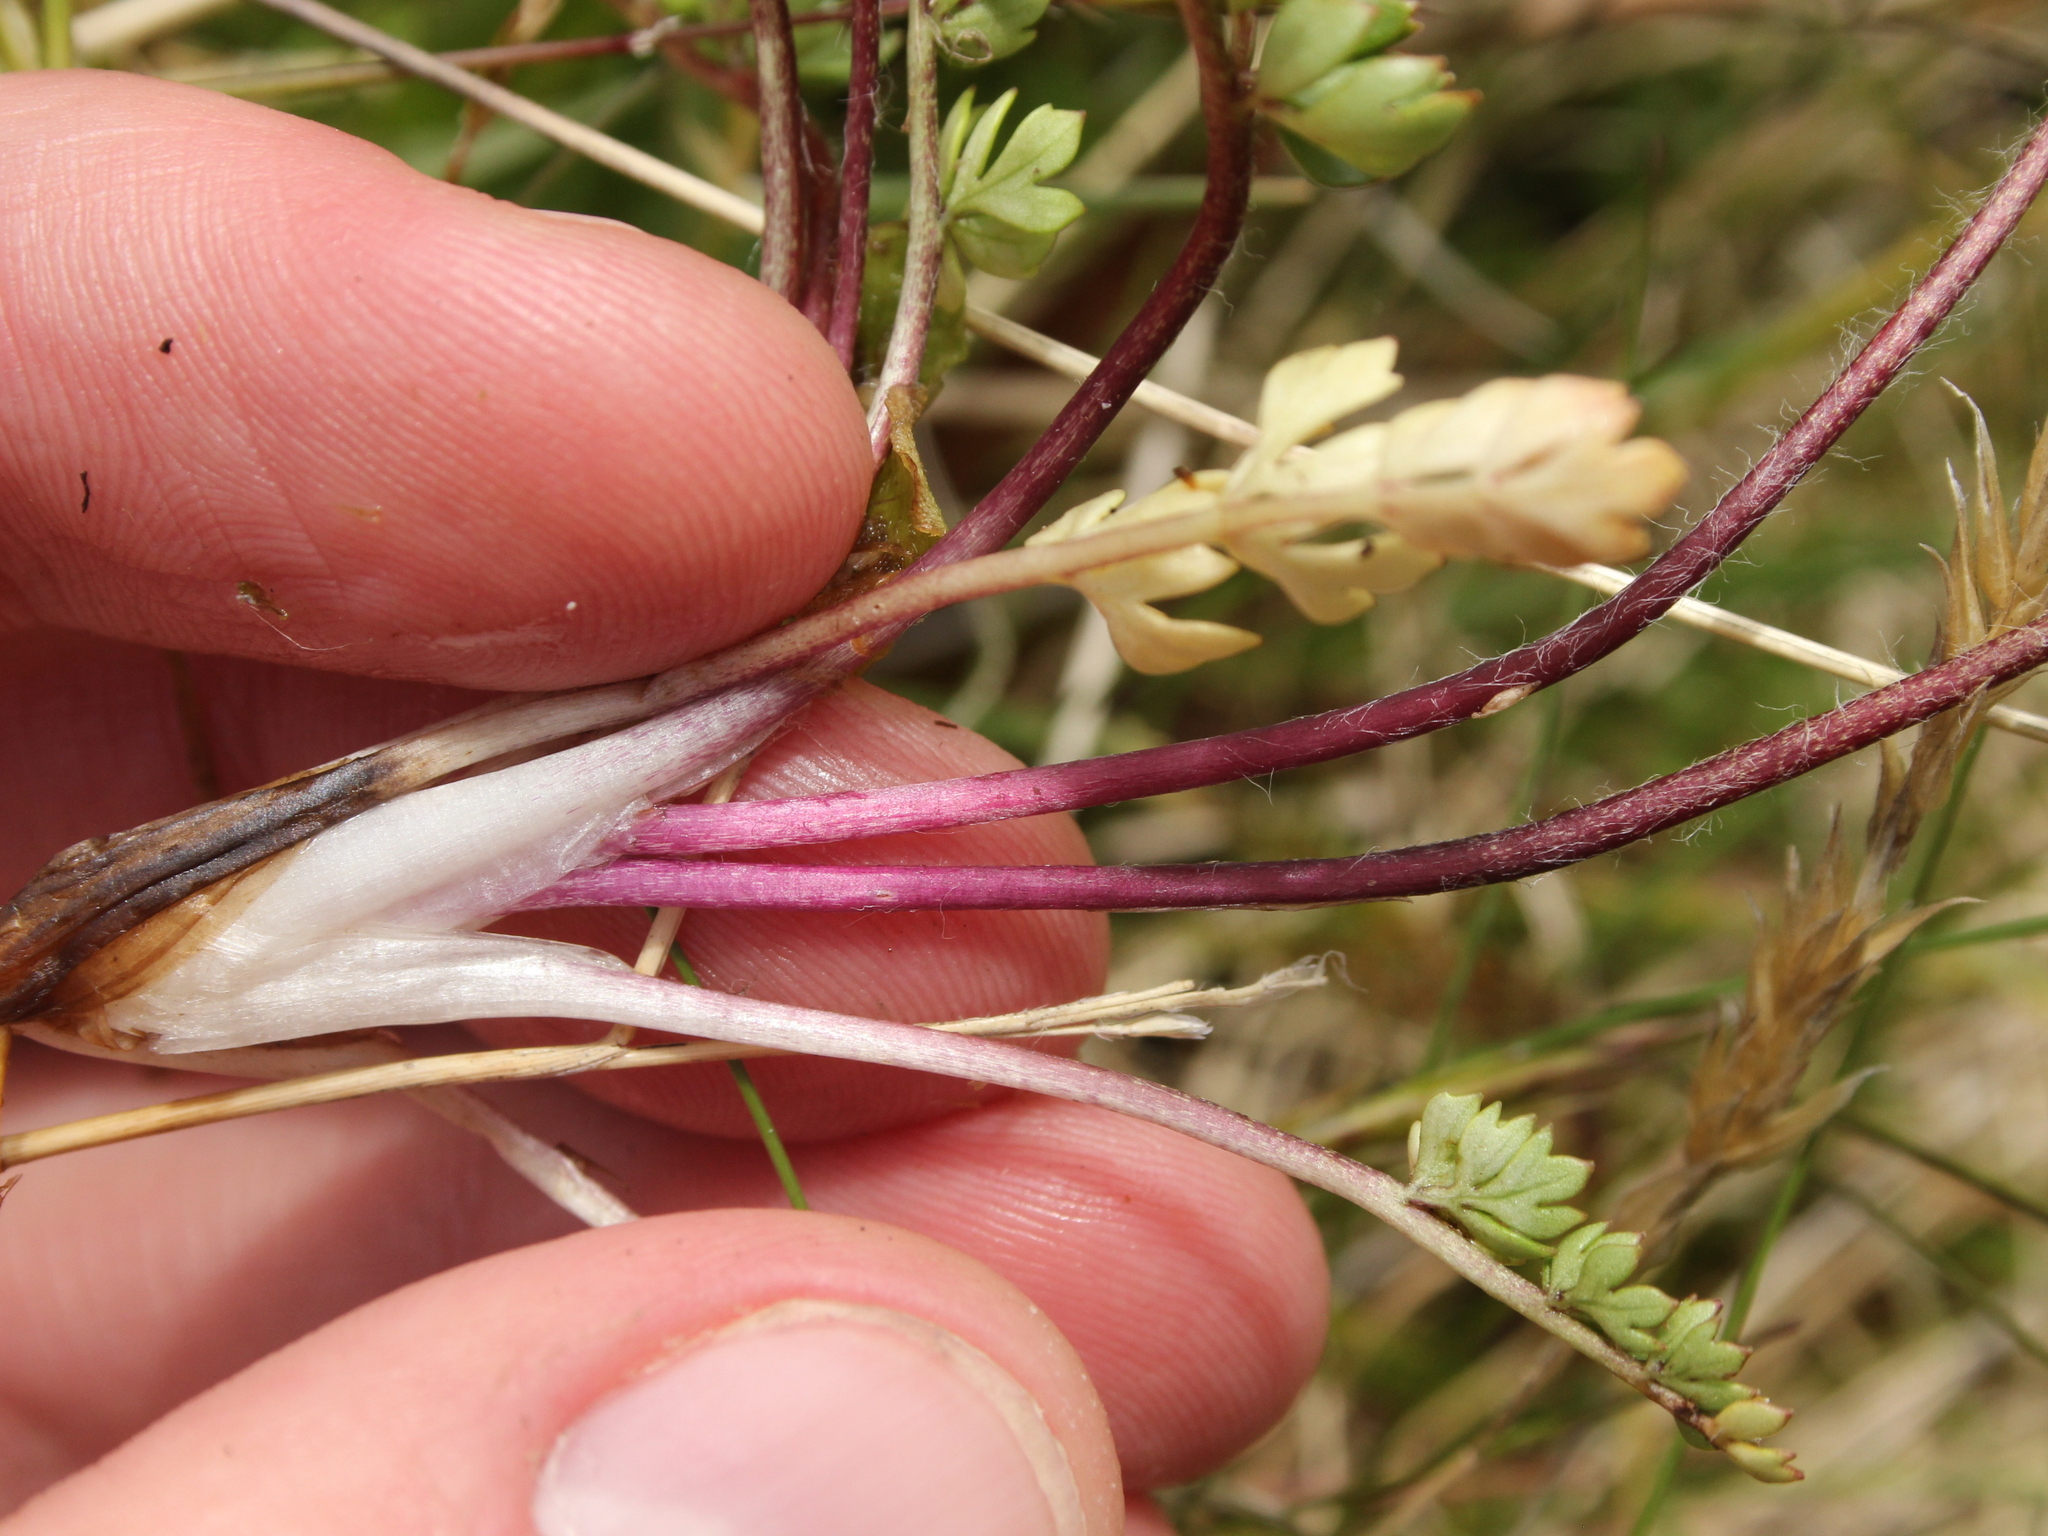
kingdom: Plantae
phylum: Tracheophyta
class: Magnoliopsida
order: Ranunculales
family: Ranunculaceae
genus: Ranunculus
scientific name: Ranunculus gracilipes
